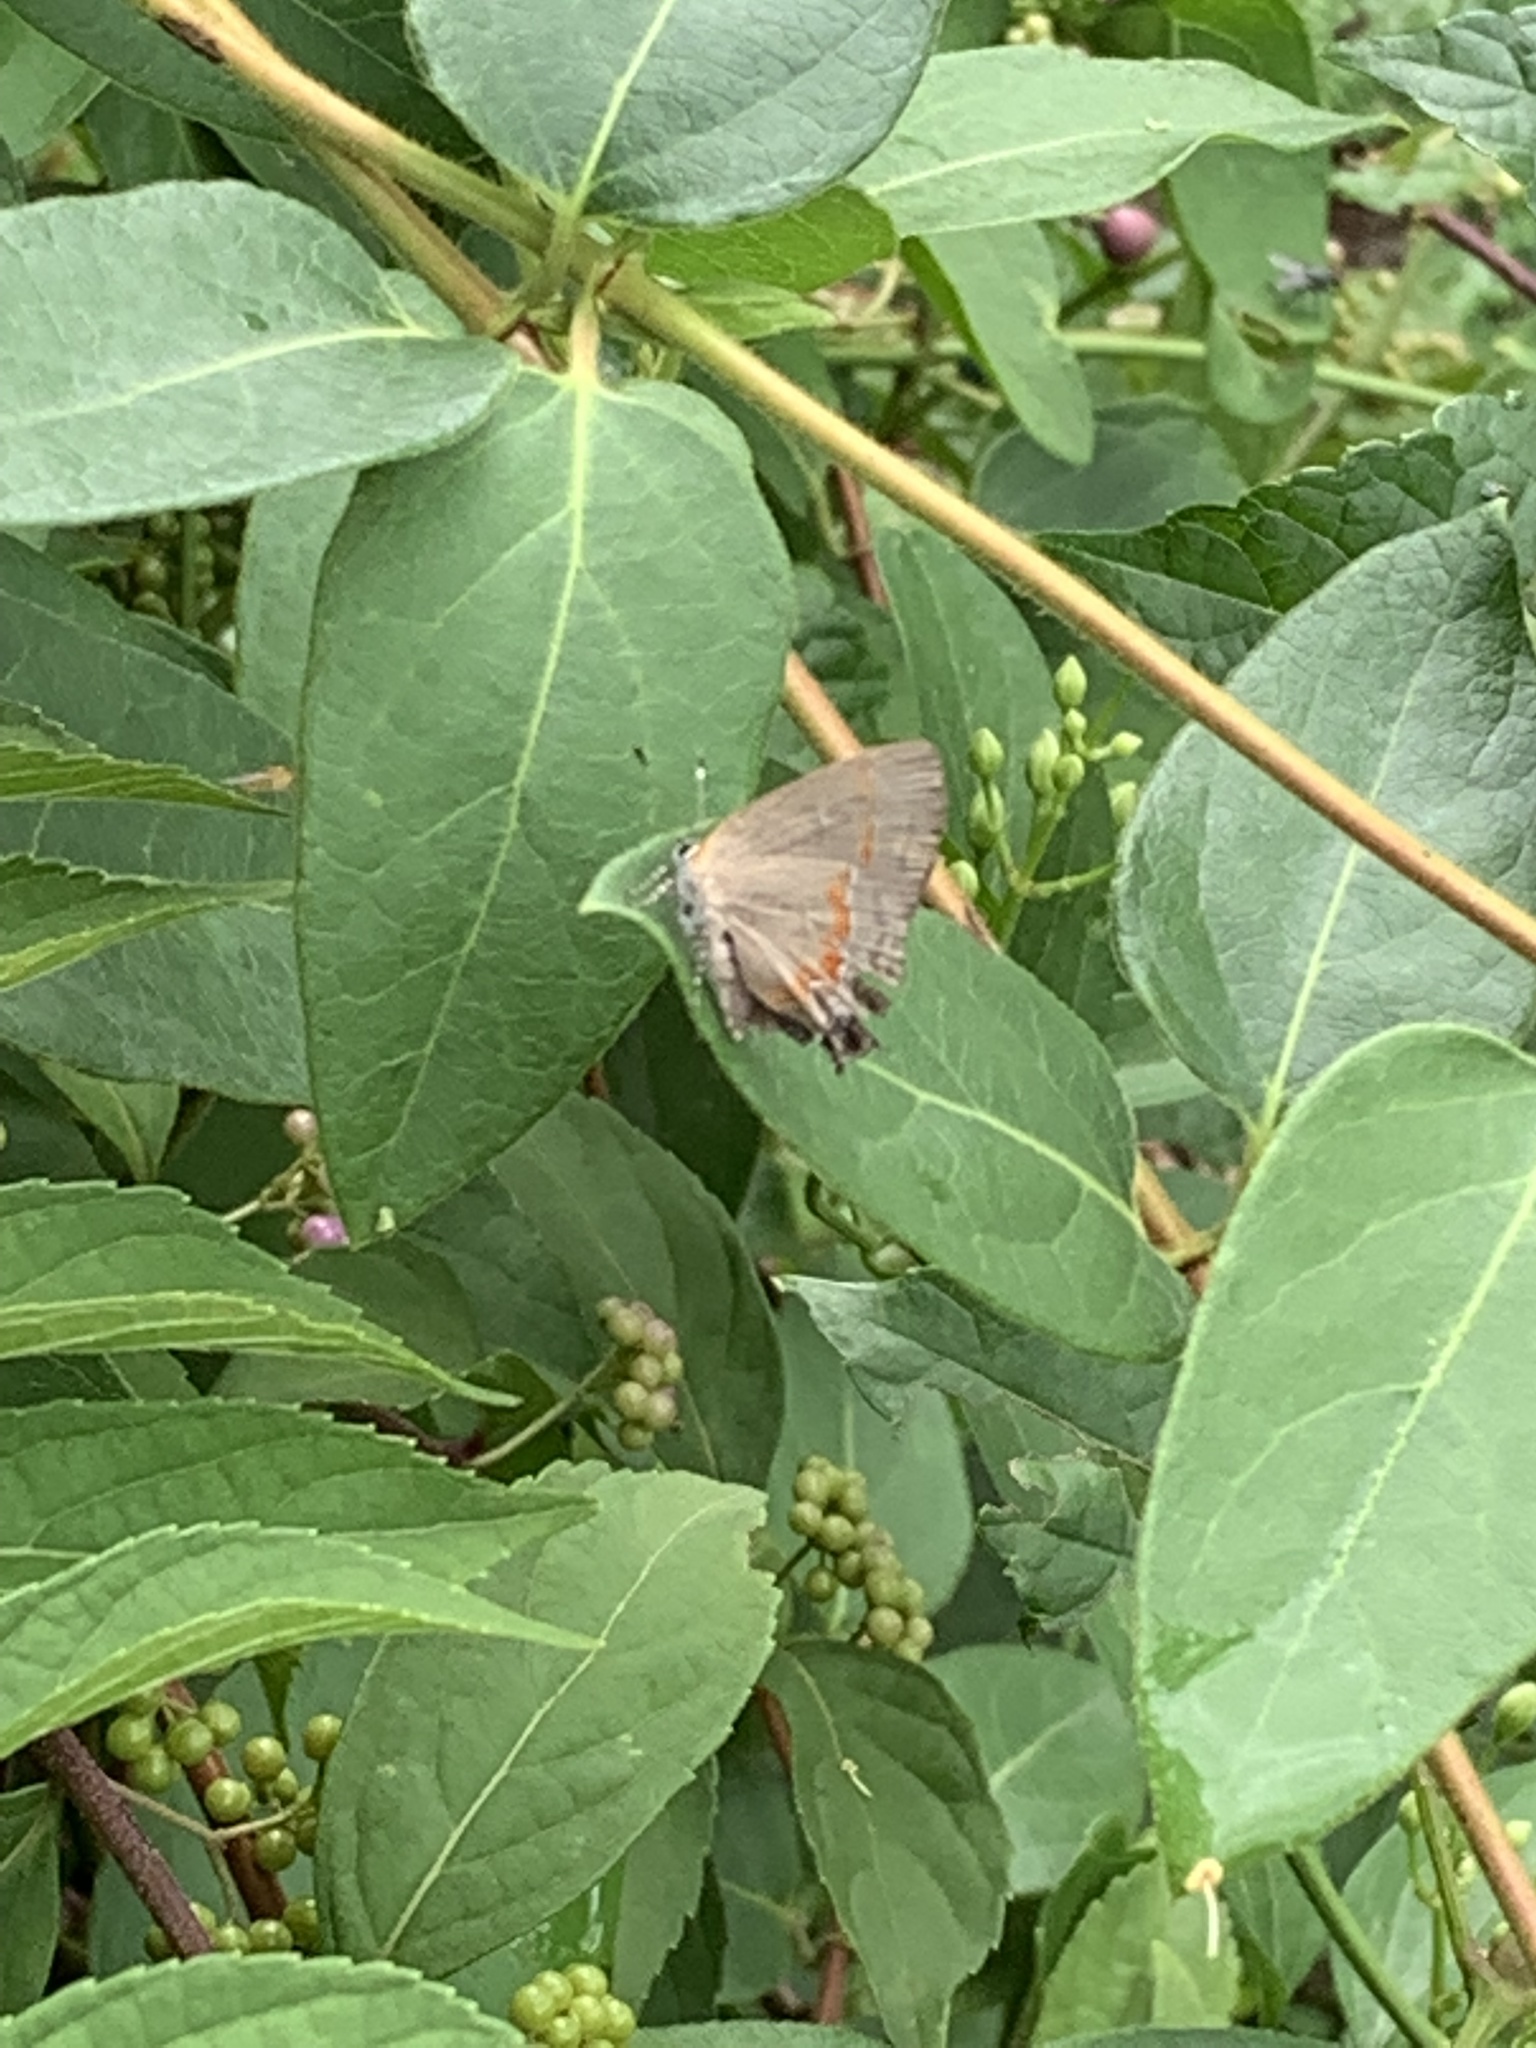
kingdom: Animalia
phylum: Arthropoda
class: Insecta
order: Lepidoptera
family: Lycaenidae
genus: Calycopis
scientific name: Calycopis cecrops
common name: Red-banded hairstreak
